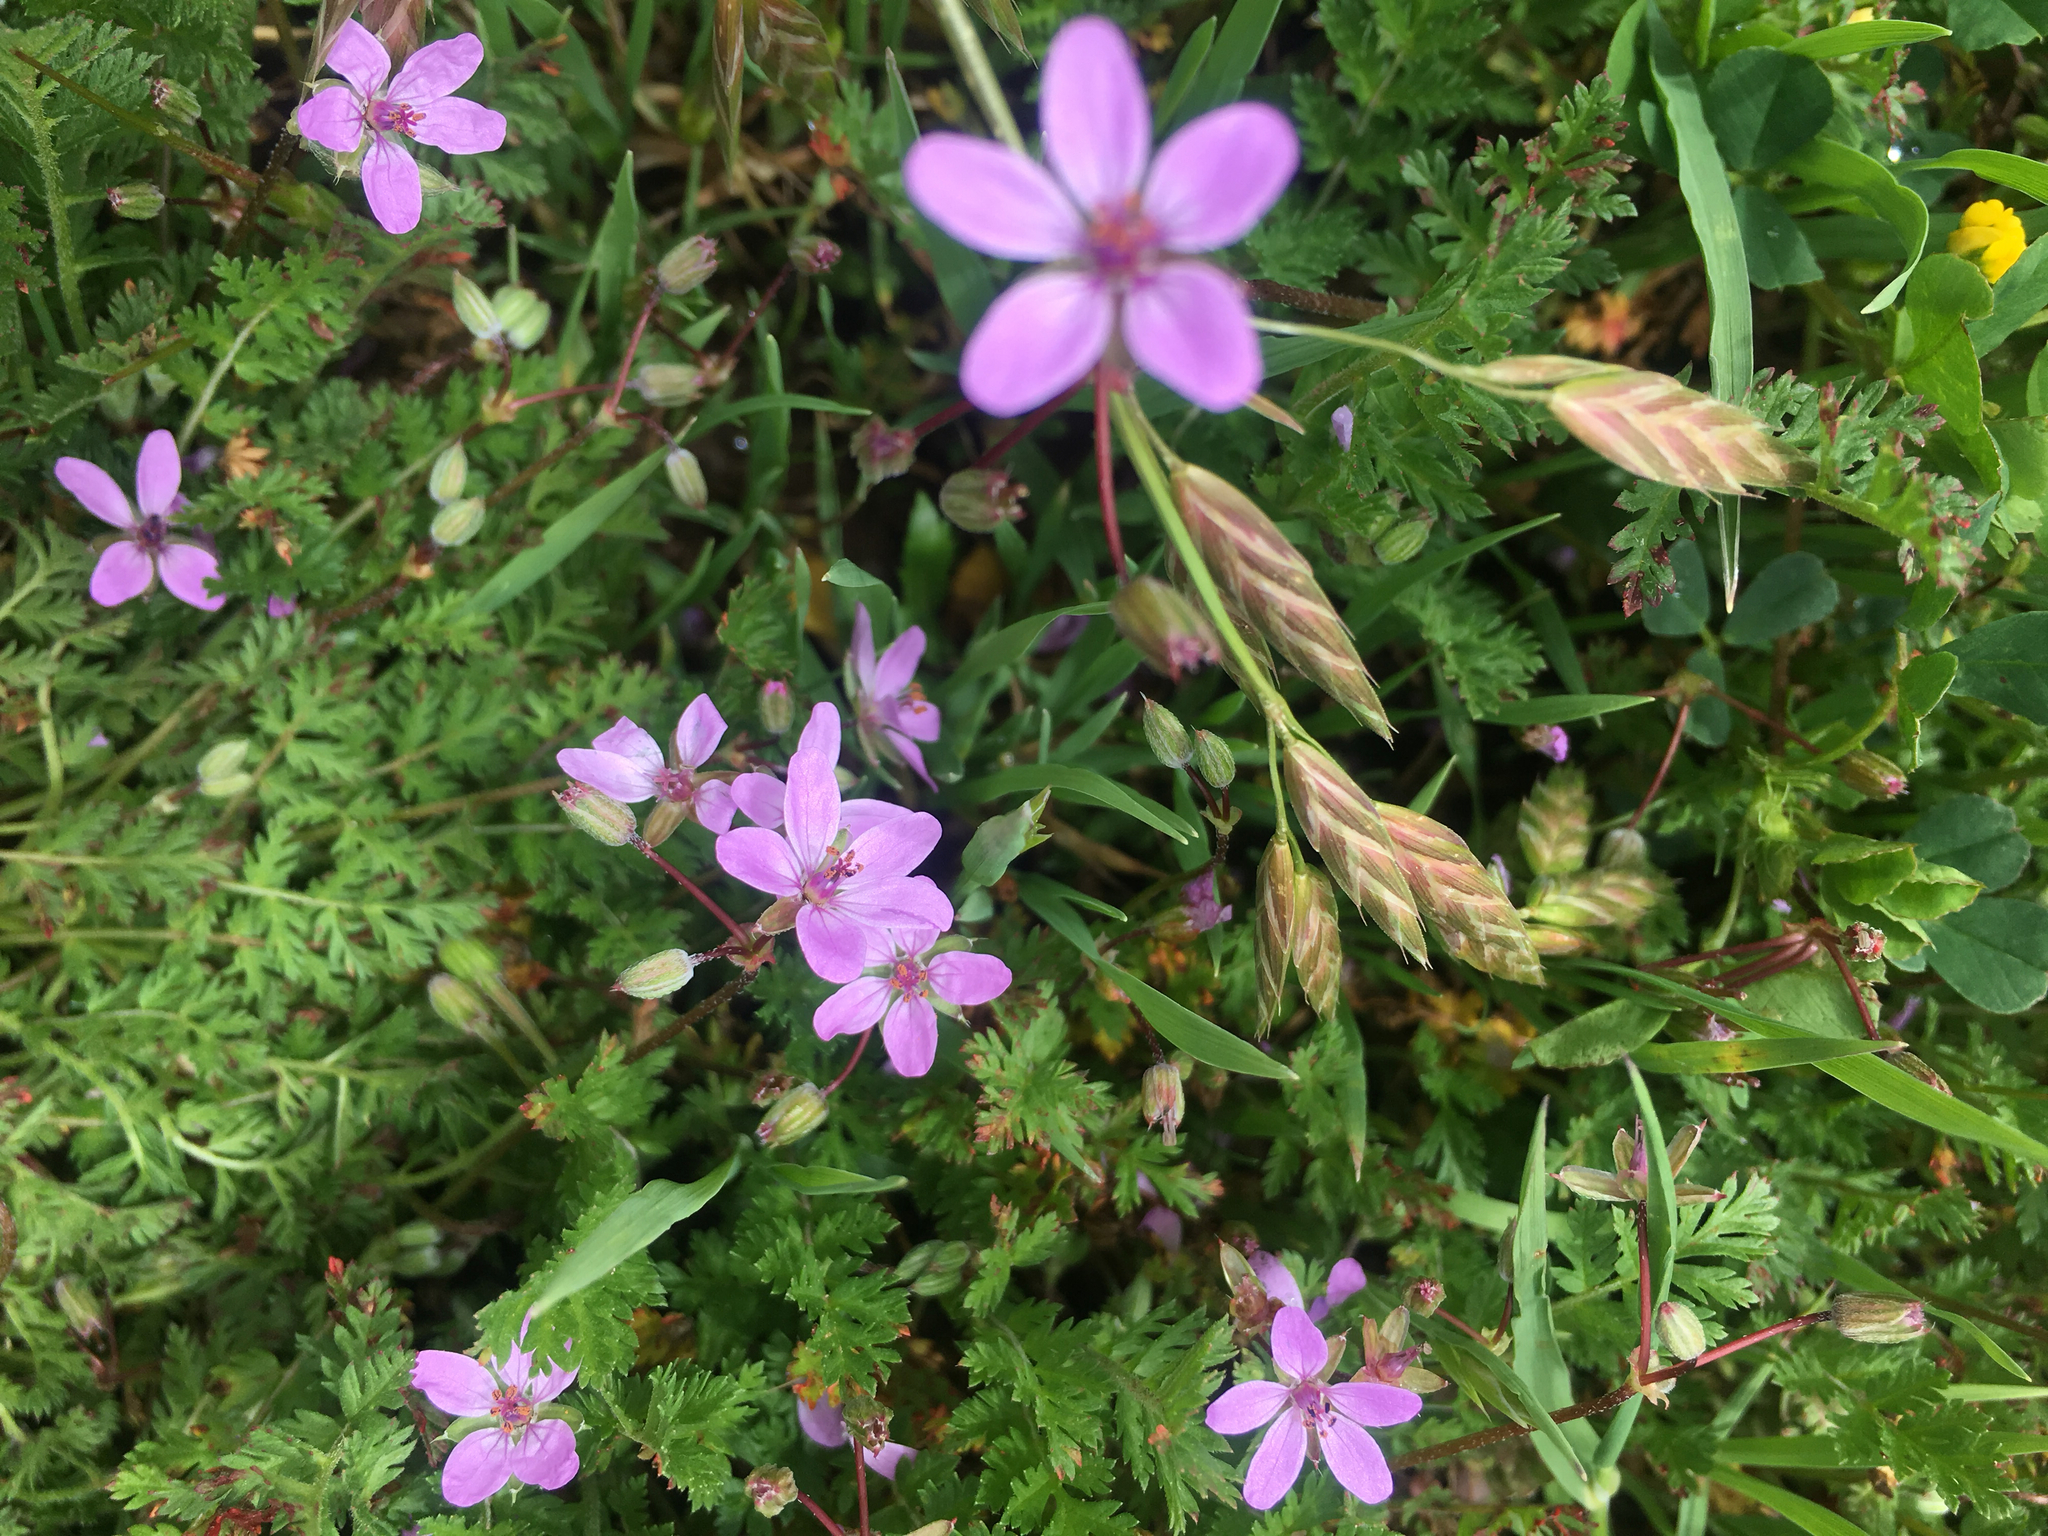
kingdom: Plantae
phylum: Tracheophyta
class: Magnoliopsida
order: Geraniales
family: Geraniaceae
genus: Erodium
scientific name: Erodium cicutarium
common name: Common stork's-bill
